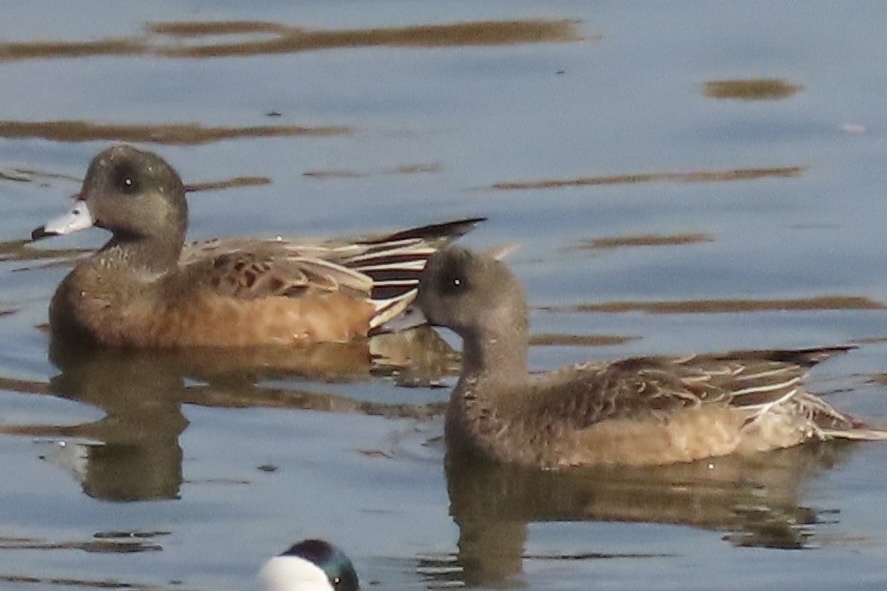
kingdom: Animalia
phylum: Chordata
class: Aves
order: Anseriformes
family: Anatidae
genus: Mareca
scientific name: Mareca americana
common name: American wigeon
